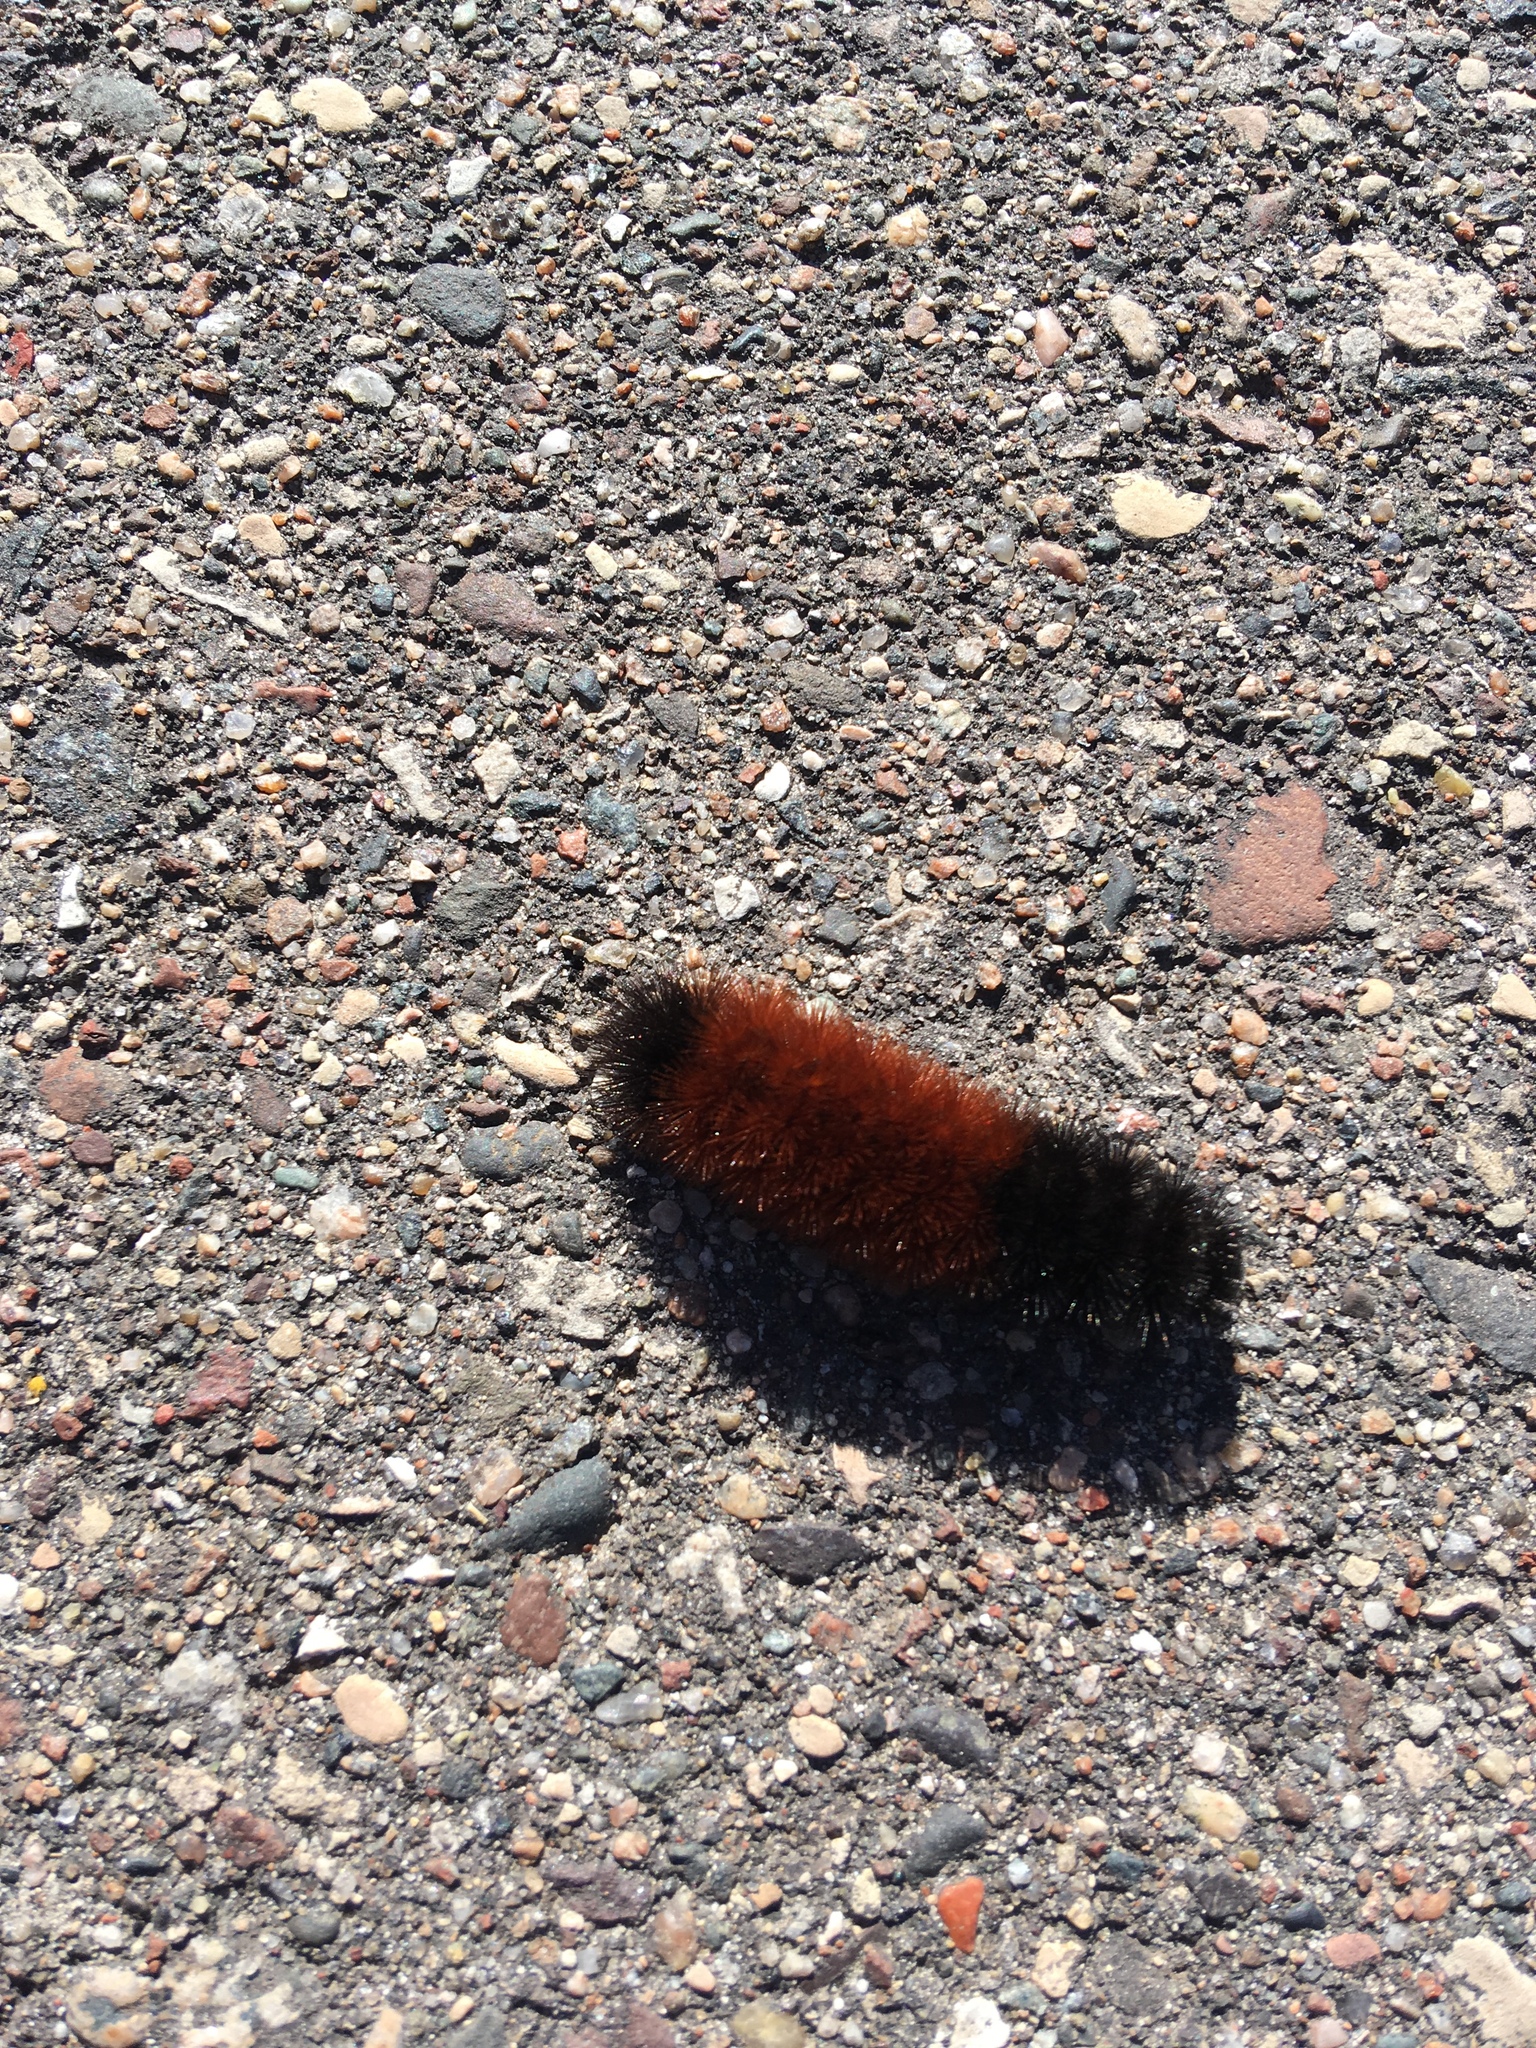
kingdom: Animalia
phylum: Arthropoda
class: Insecta
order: Lepidoptera
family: Erebidae
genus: Pyrrharctia
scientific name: Pyrrharctia isabella
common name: Isabella tiger moth
